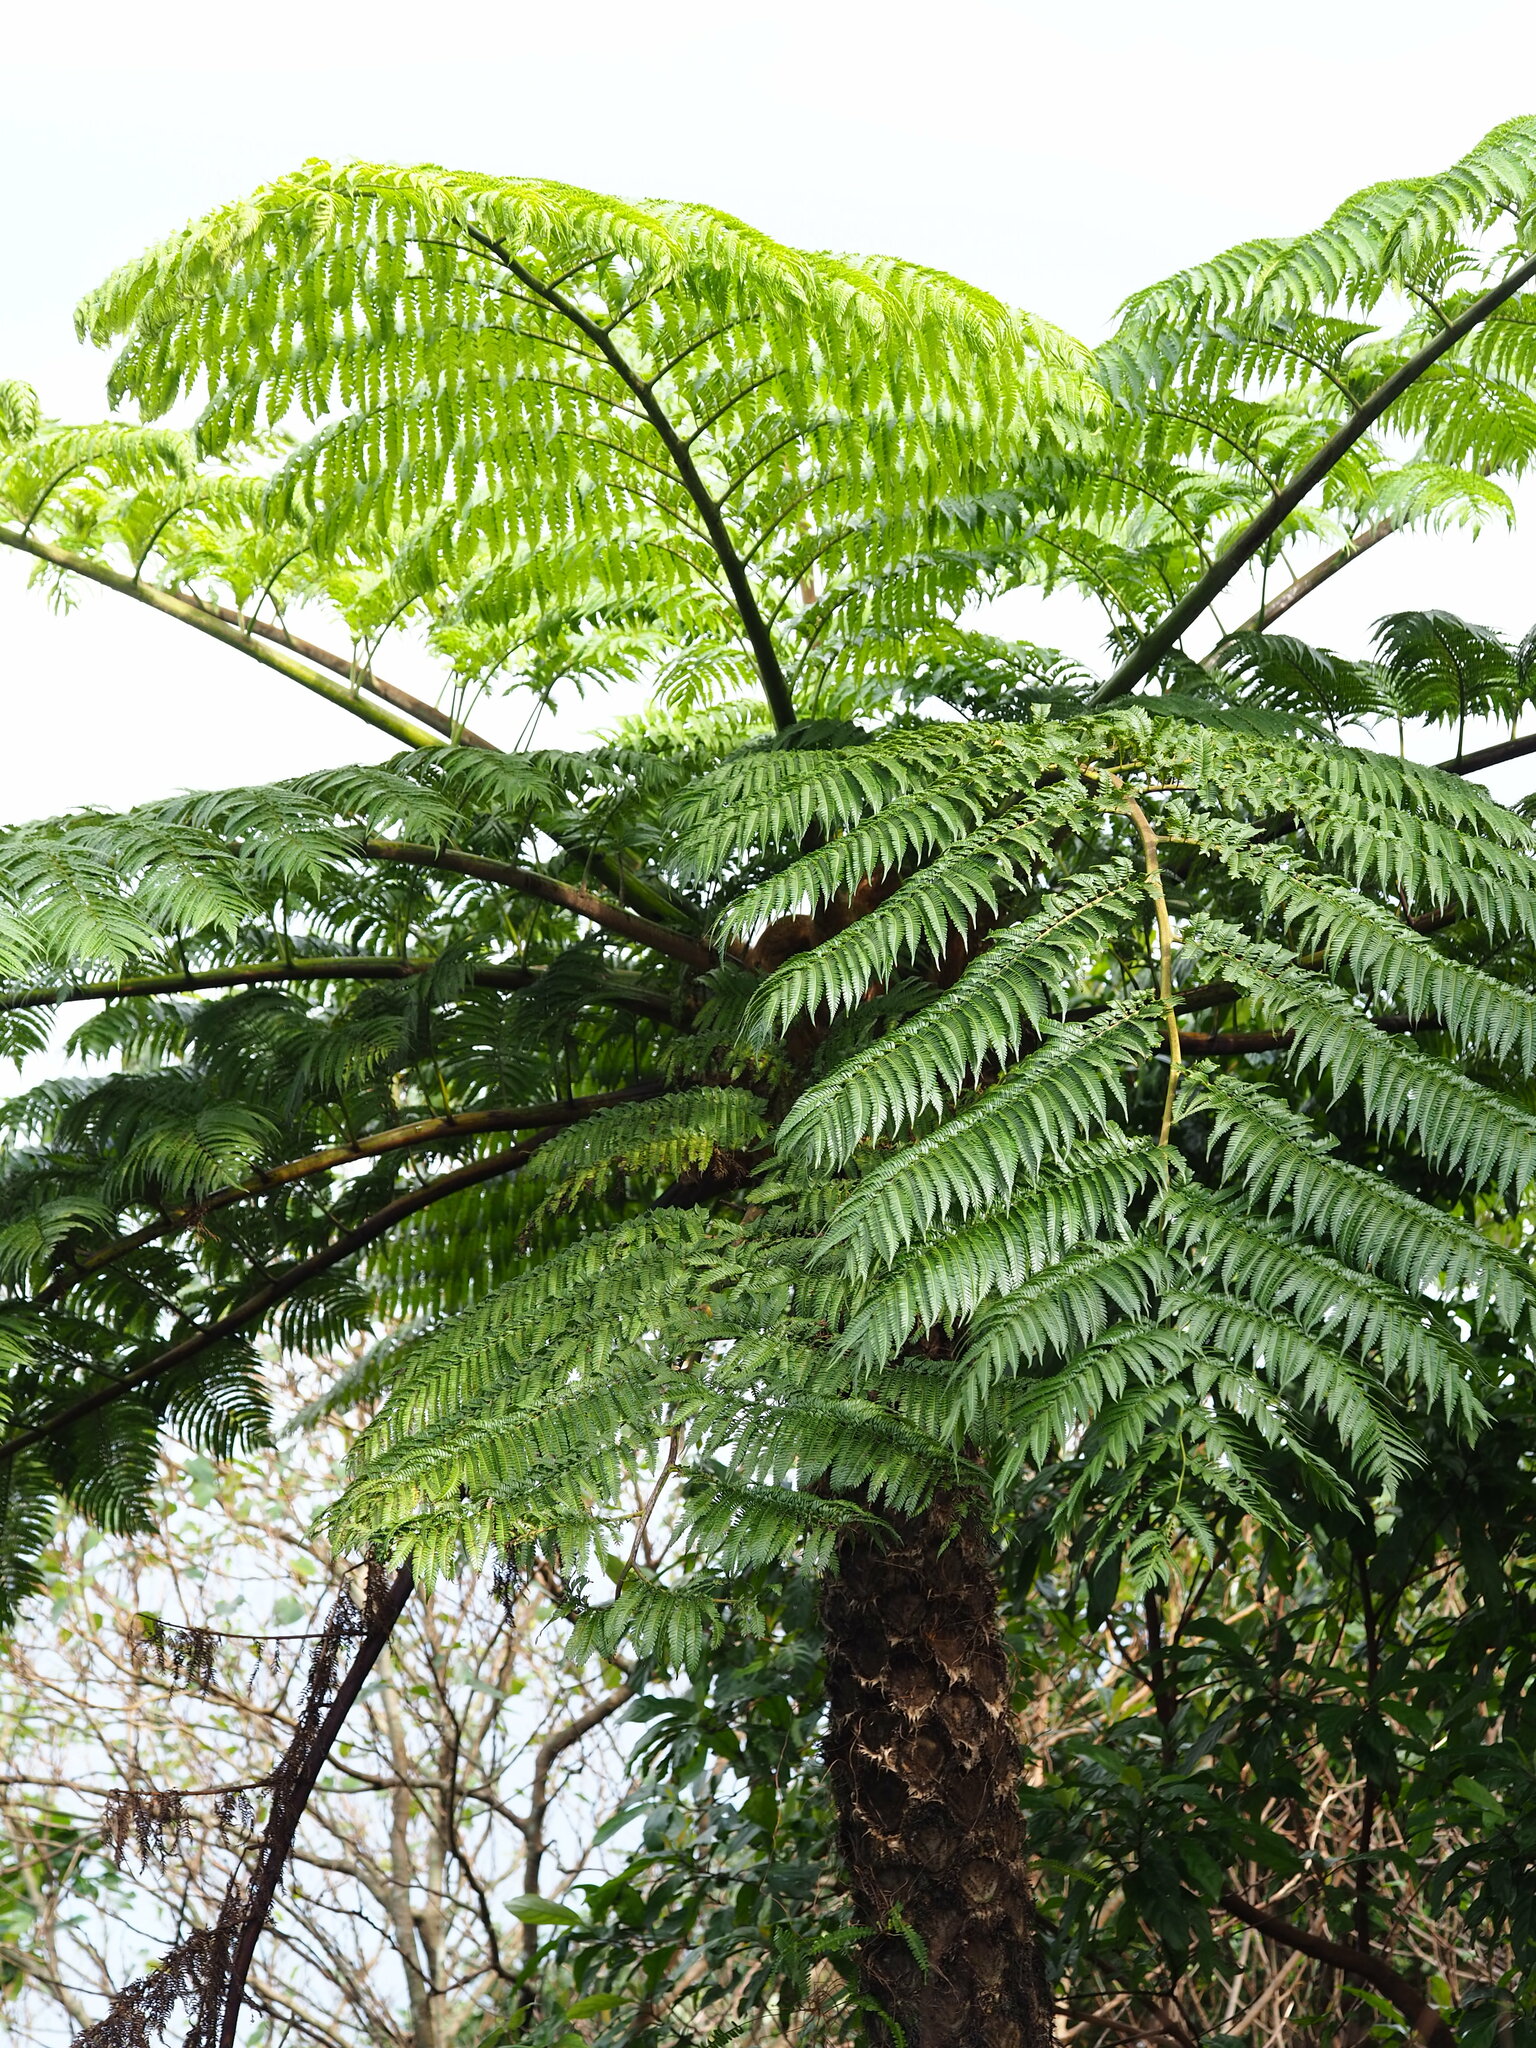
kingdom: Plantae
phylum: Tracheophyta
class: Polypodiopsida
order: Cyatheales
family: Cyatheaceae
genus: Alsophila
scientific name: Alsophila lepifera
